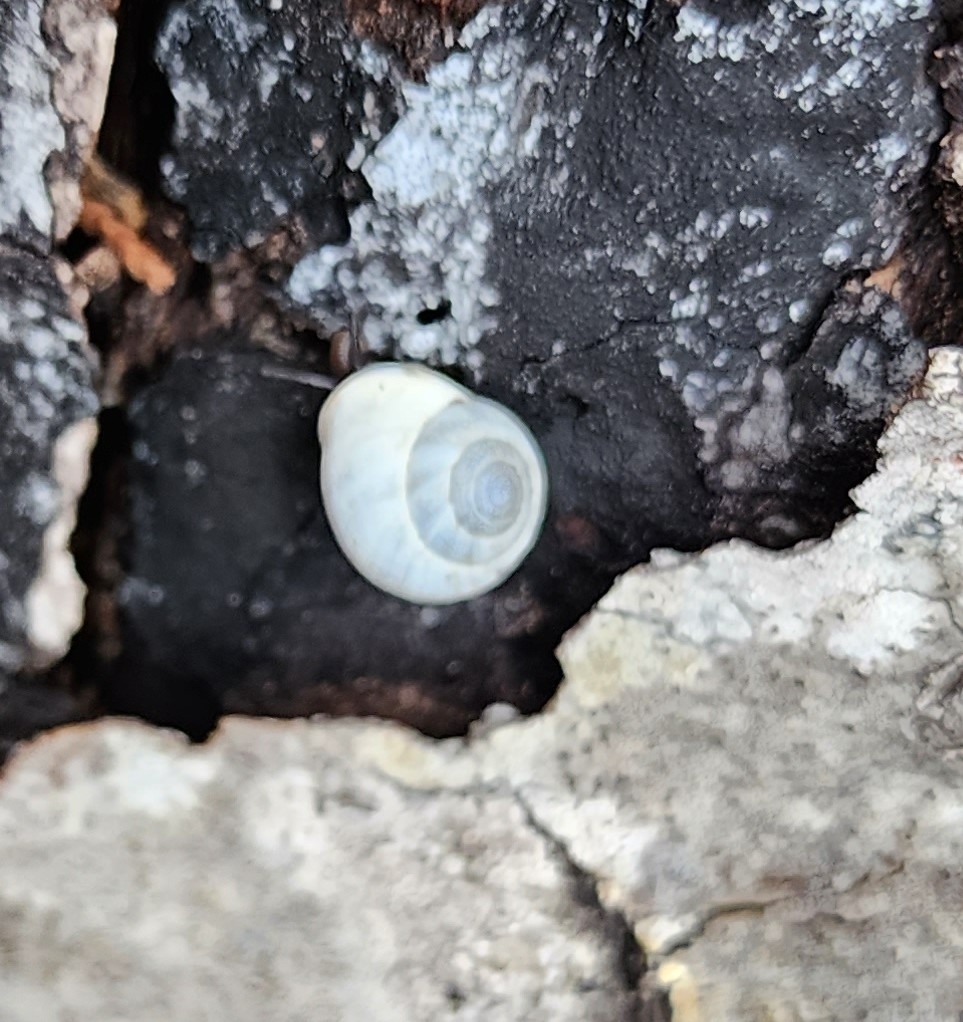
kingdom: Animalia
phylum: Mollusca
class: Gastropoda
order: Cycloneritida
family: Helicinidae
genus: Helicina
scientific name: Helicina orbiculata
